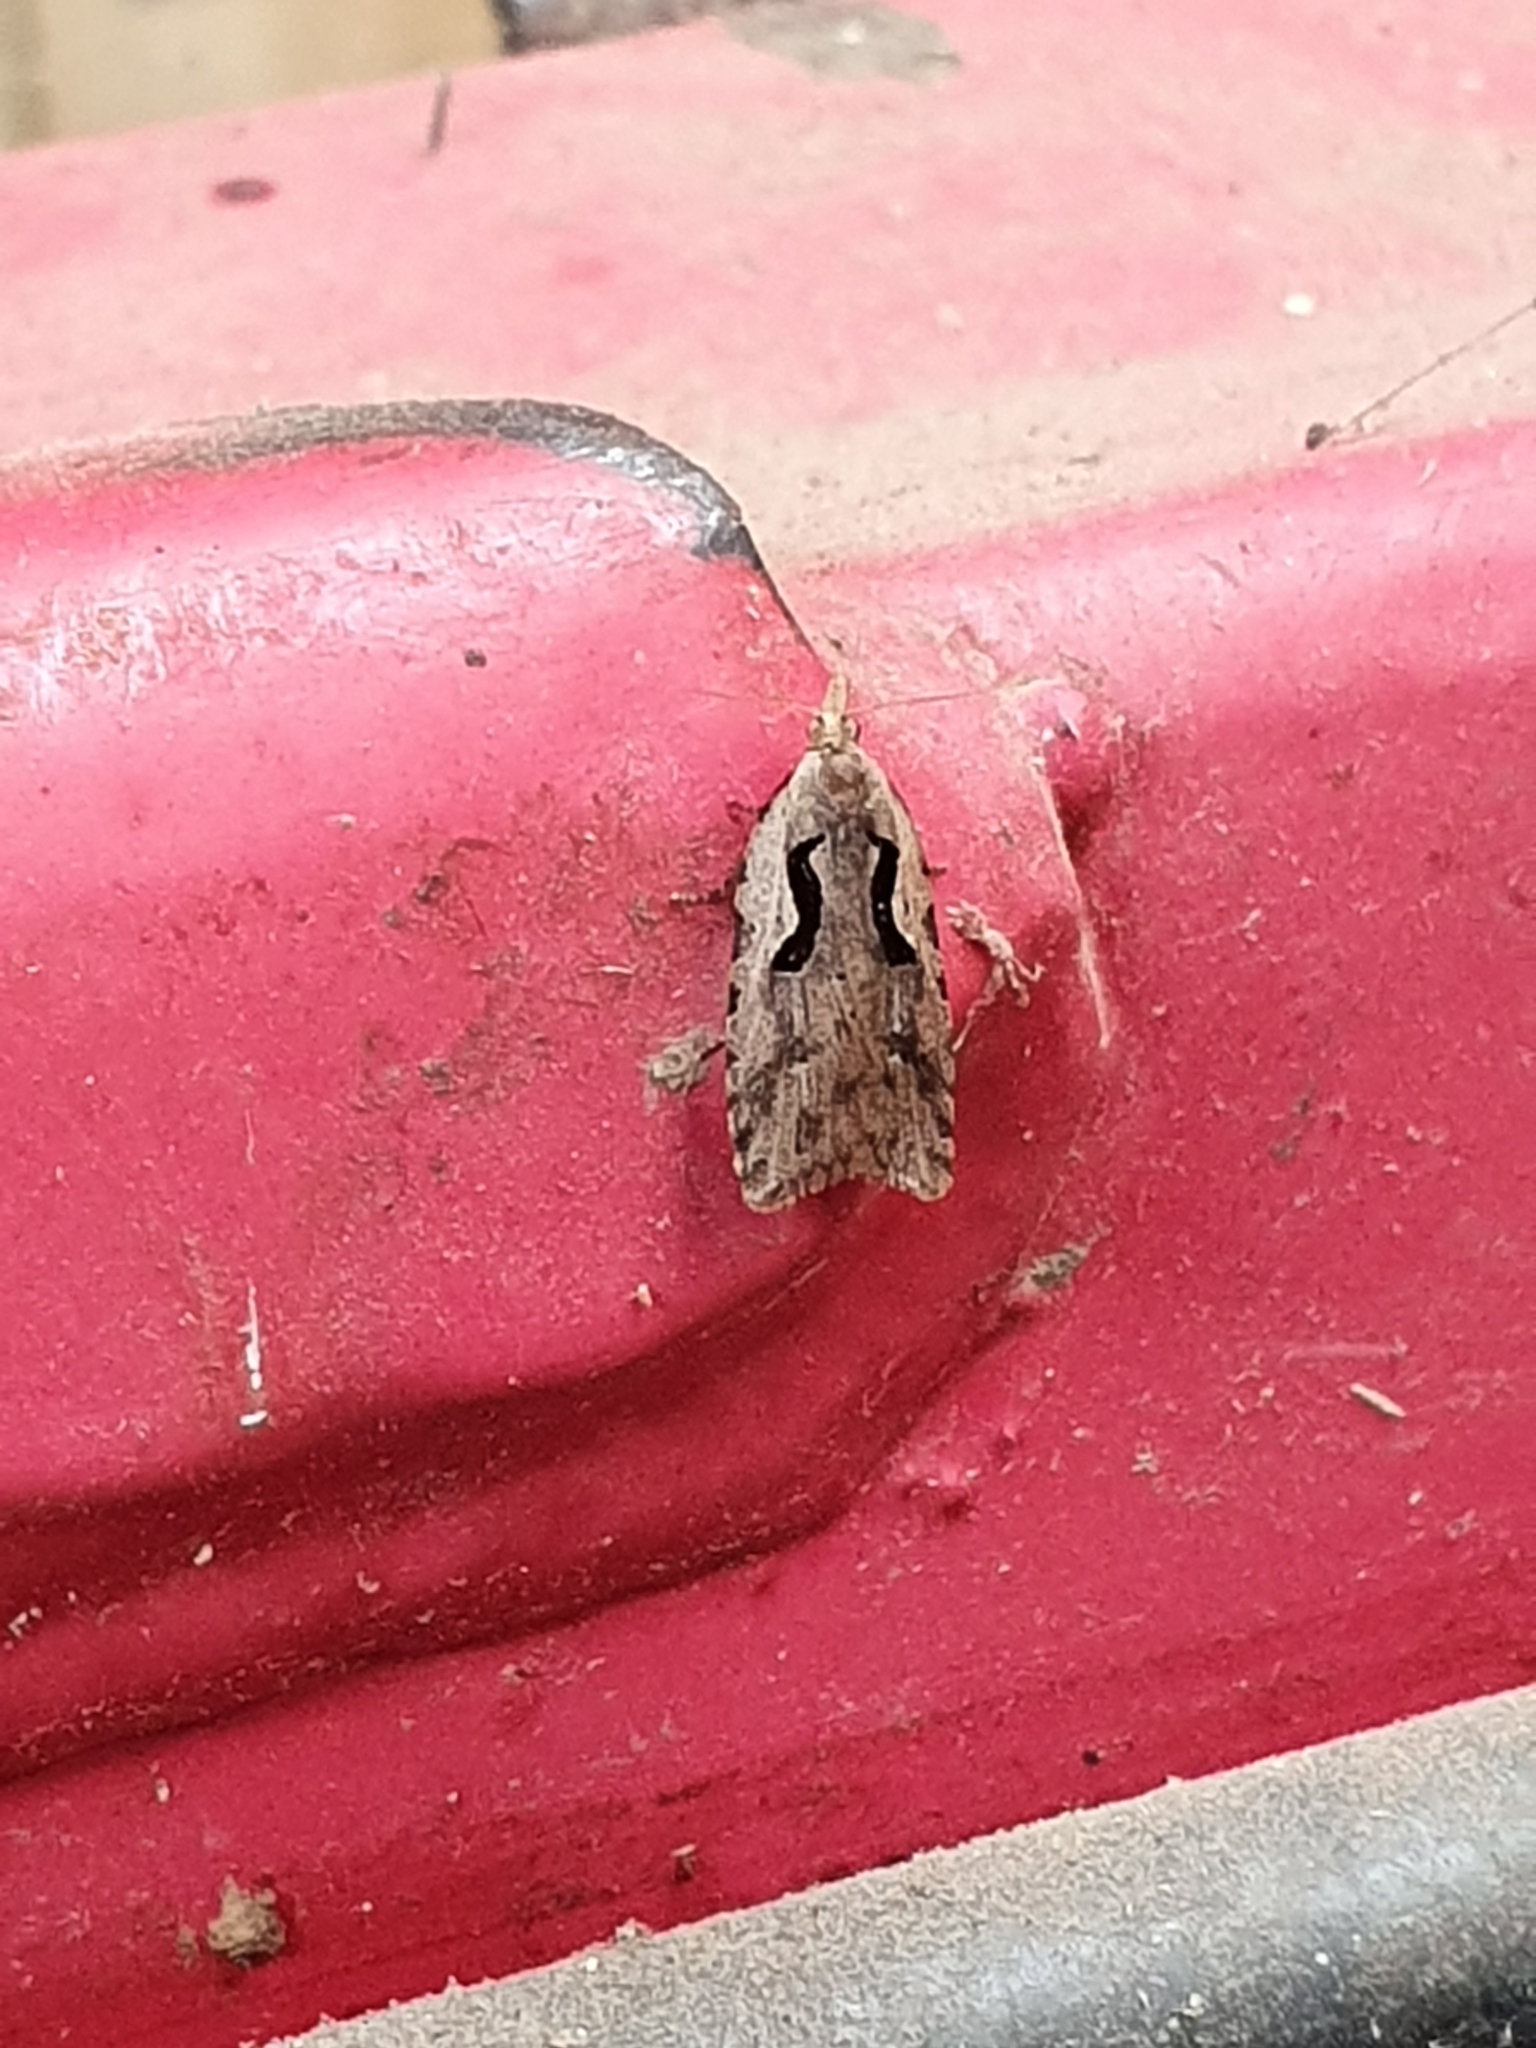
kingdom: Animalia
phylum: Arthropoda
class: Insecta
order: Lepidoptera
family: Tortricidae
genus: Cnephasia
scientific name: Cnephasia jactatana
